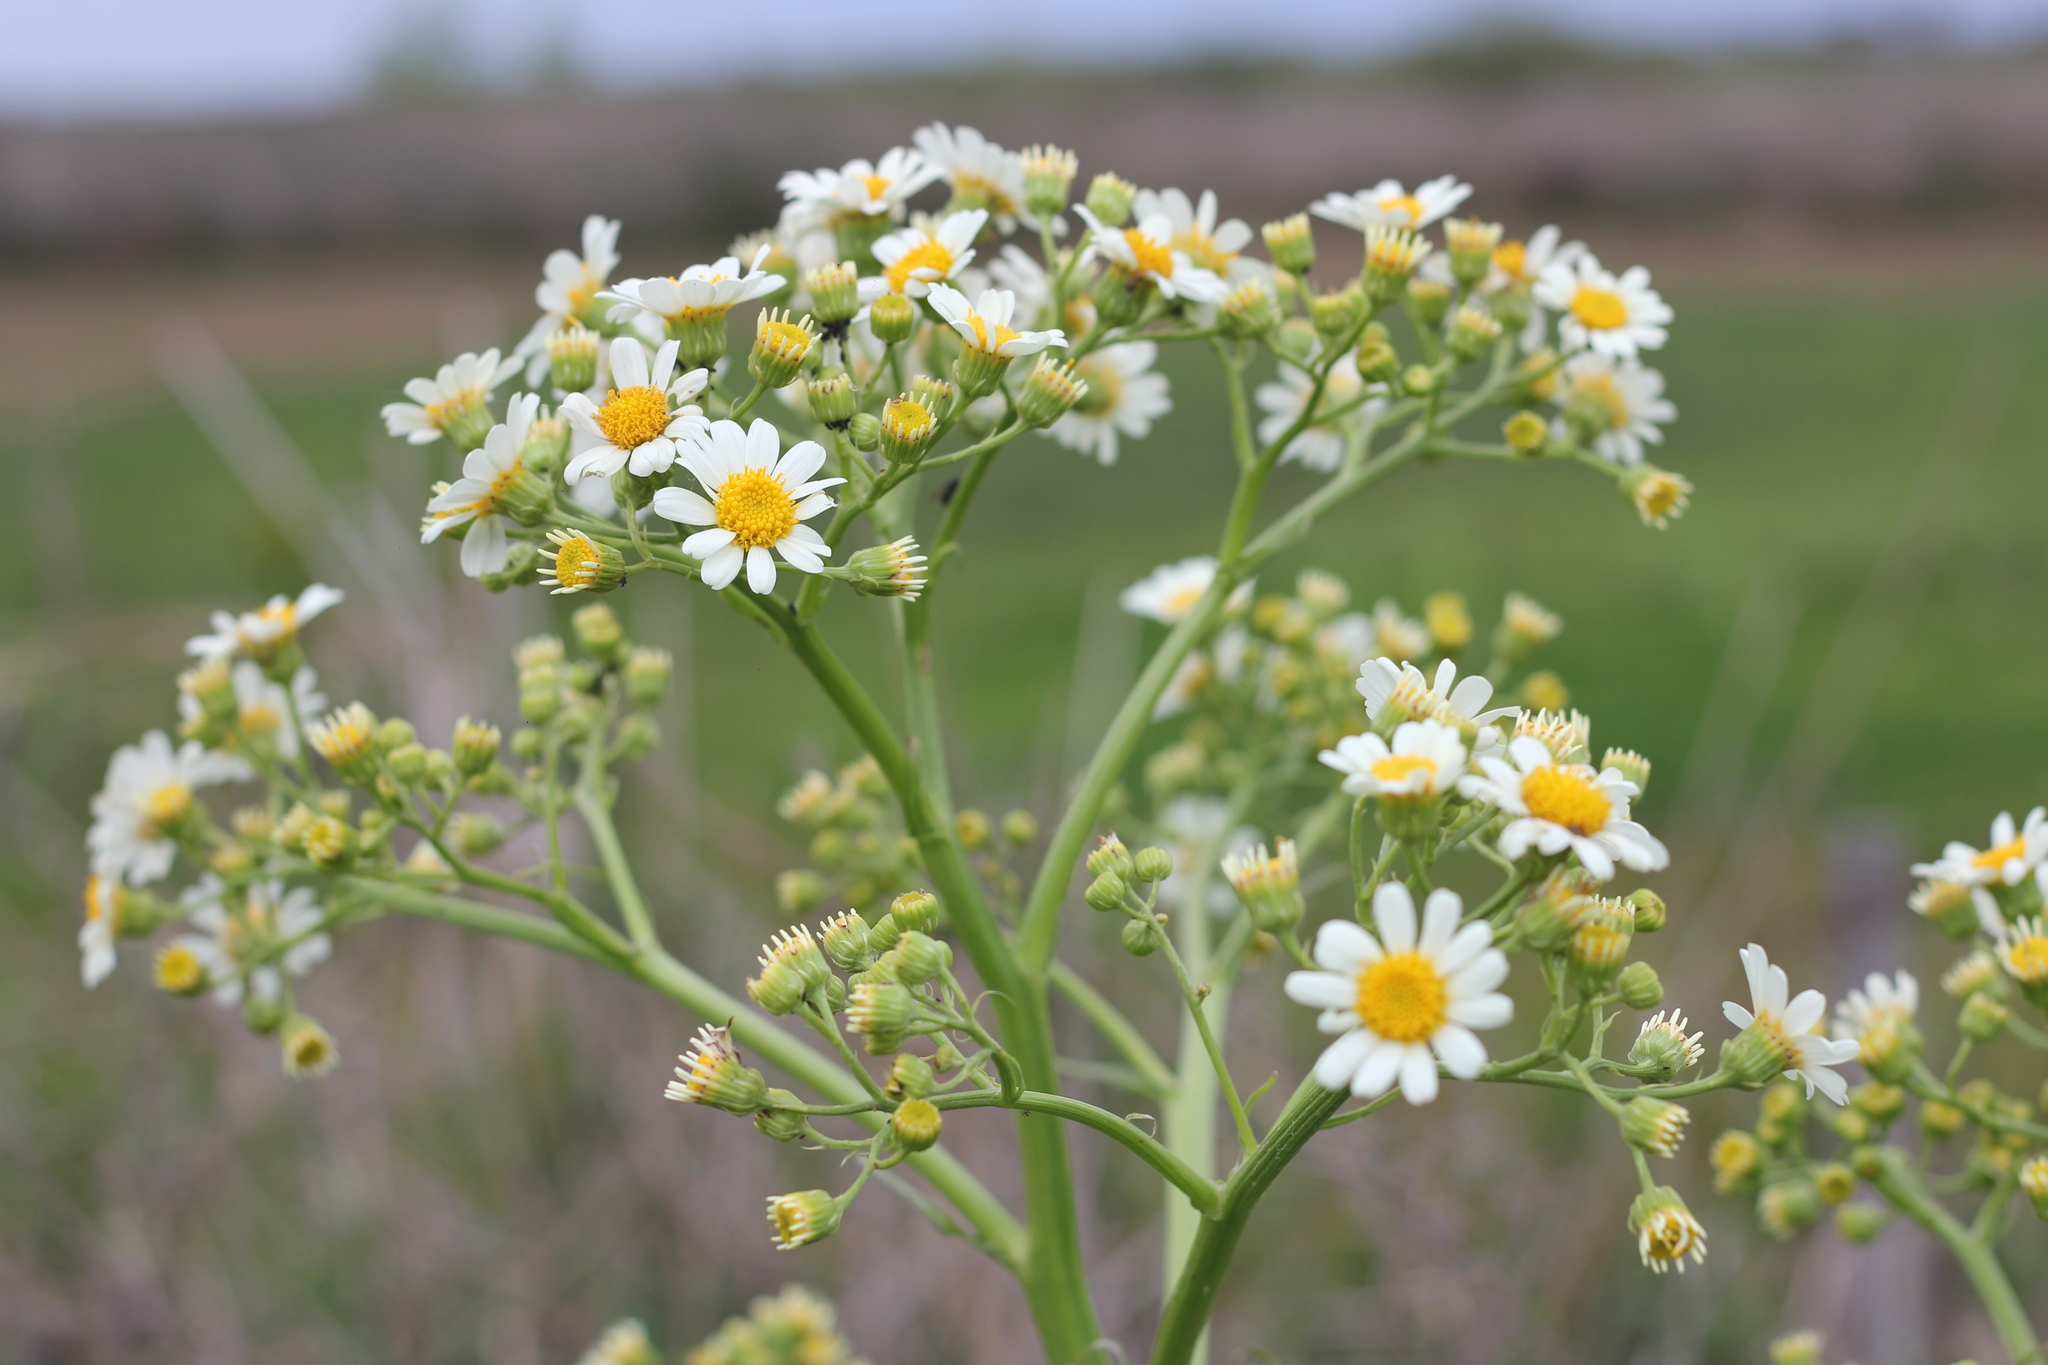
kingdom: Plantae
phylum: Tracheophyta
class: Magnoliopsida
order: Asterales
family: Asteraceae
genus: Senecio
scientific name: Senecio bonariensis
